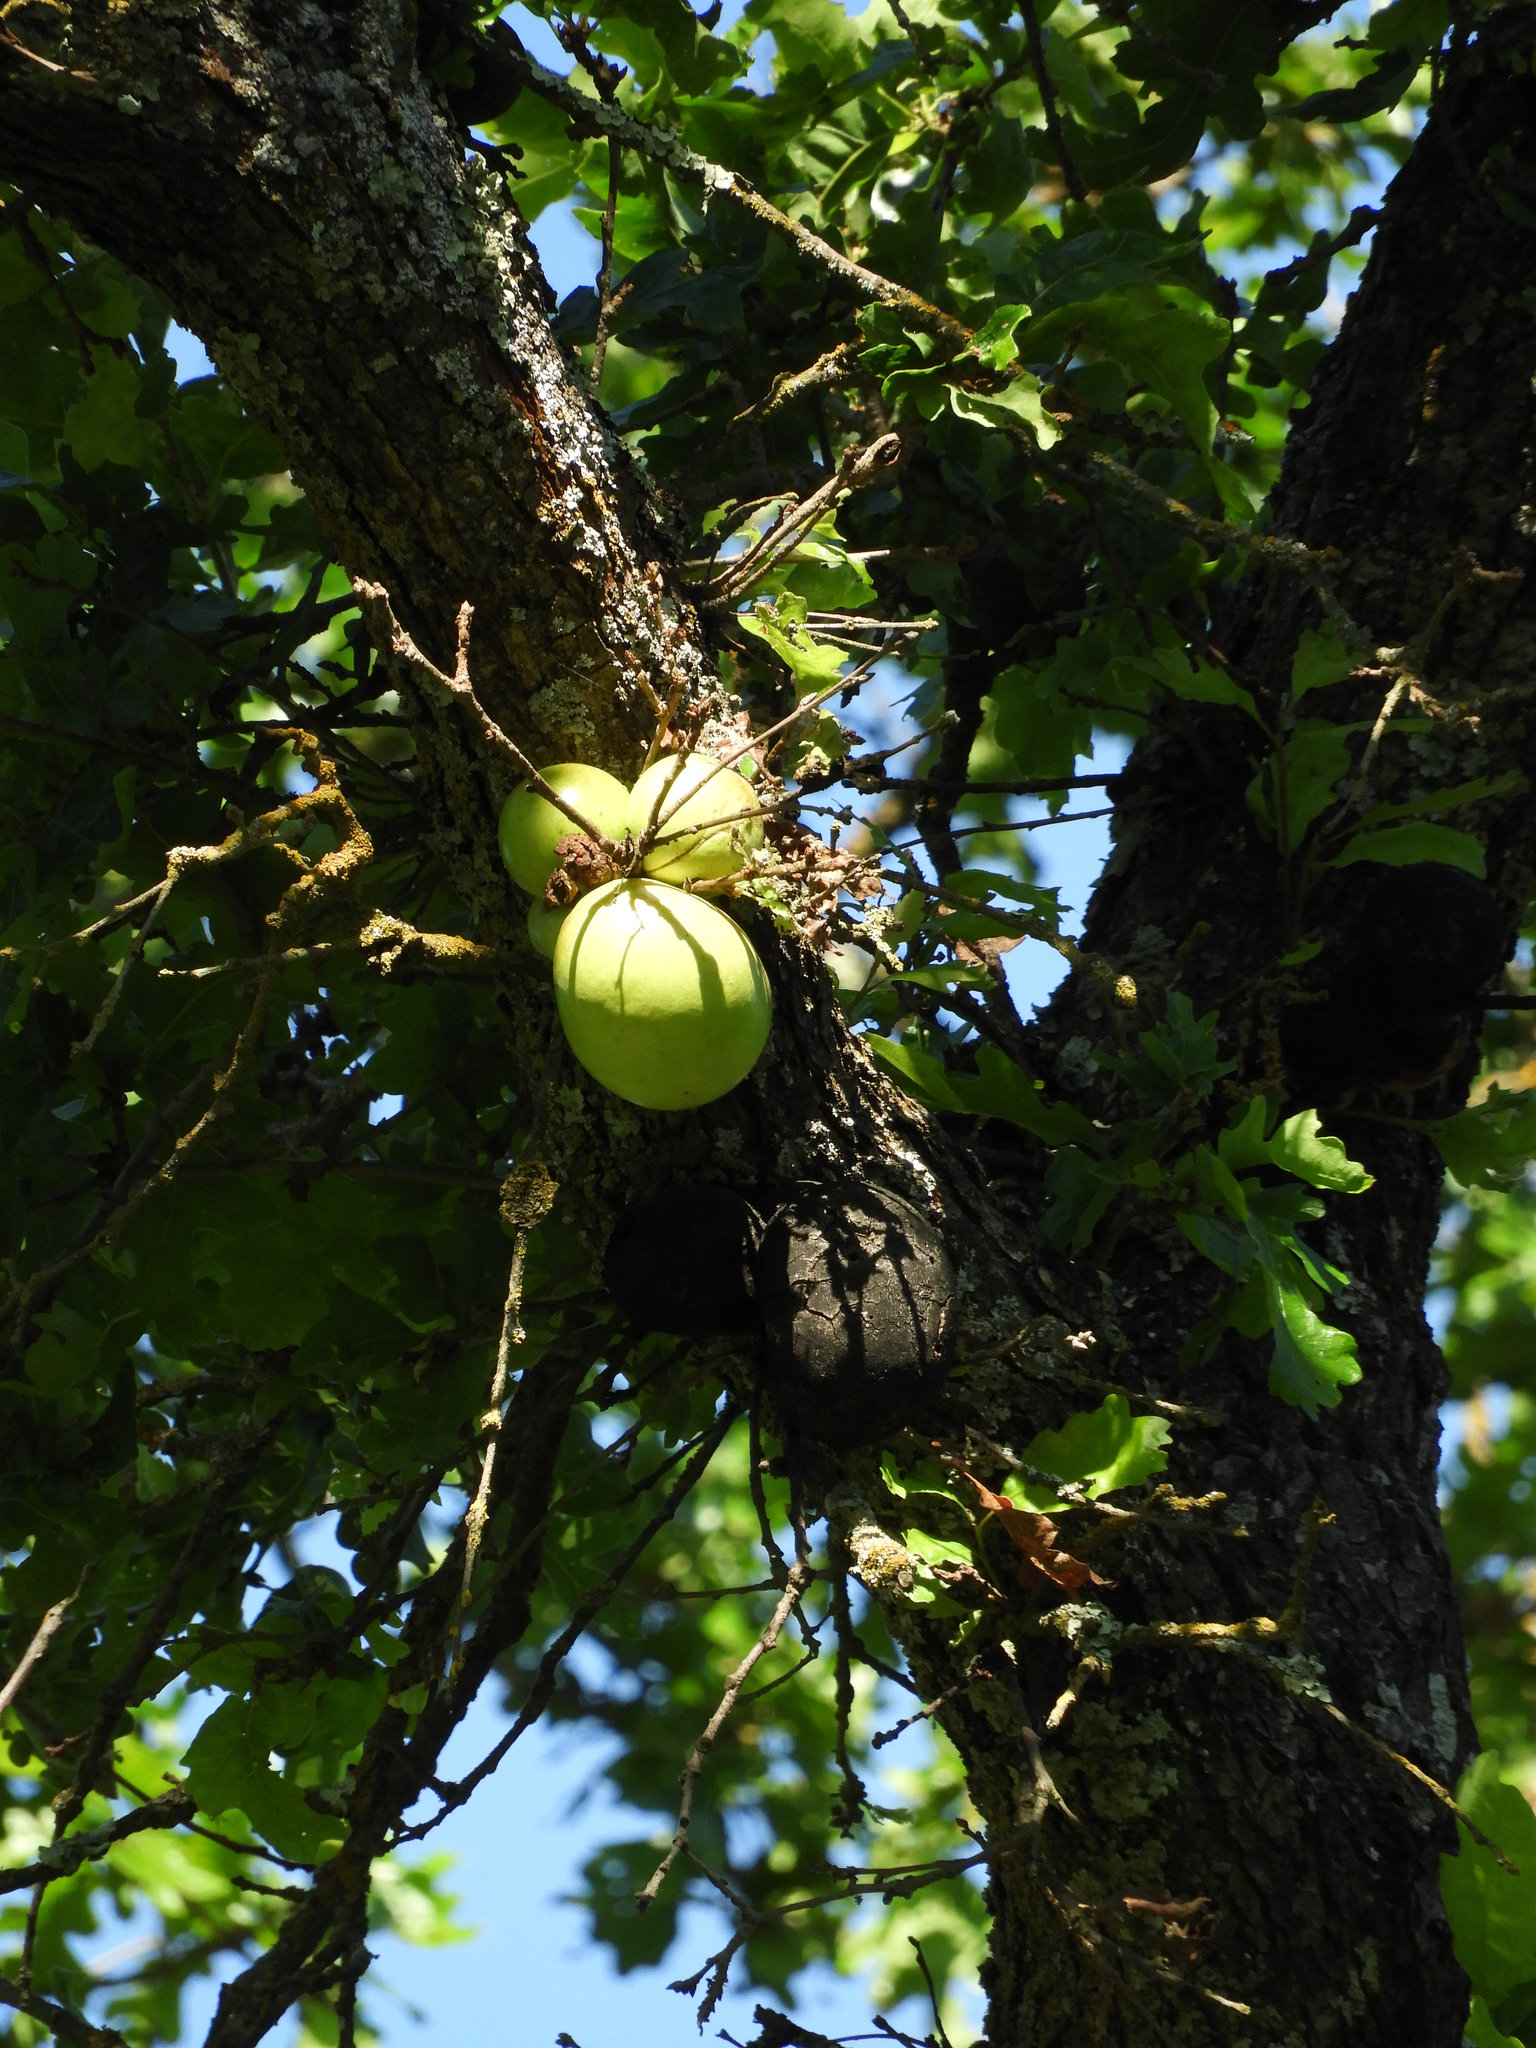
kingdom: Animalia
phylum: Arthropoda
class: Insecta
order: Hymenoptera
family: Cynipidae
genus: Andricus
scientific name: Andricus quercuscalifornicus
